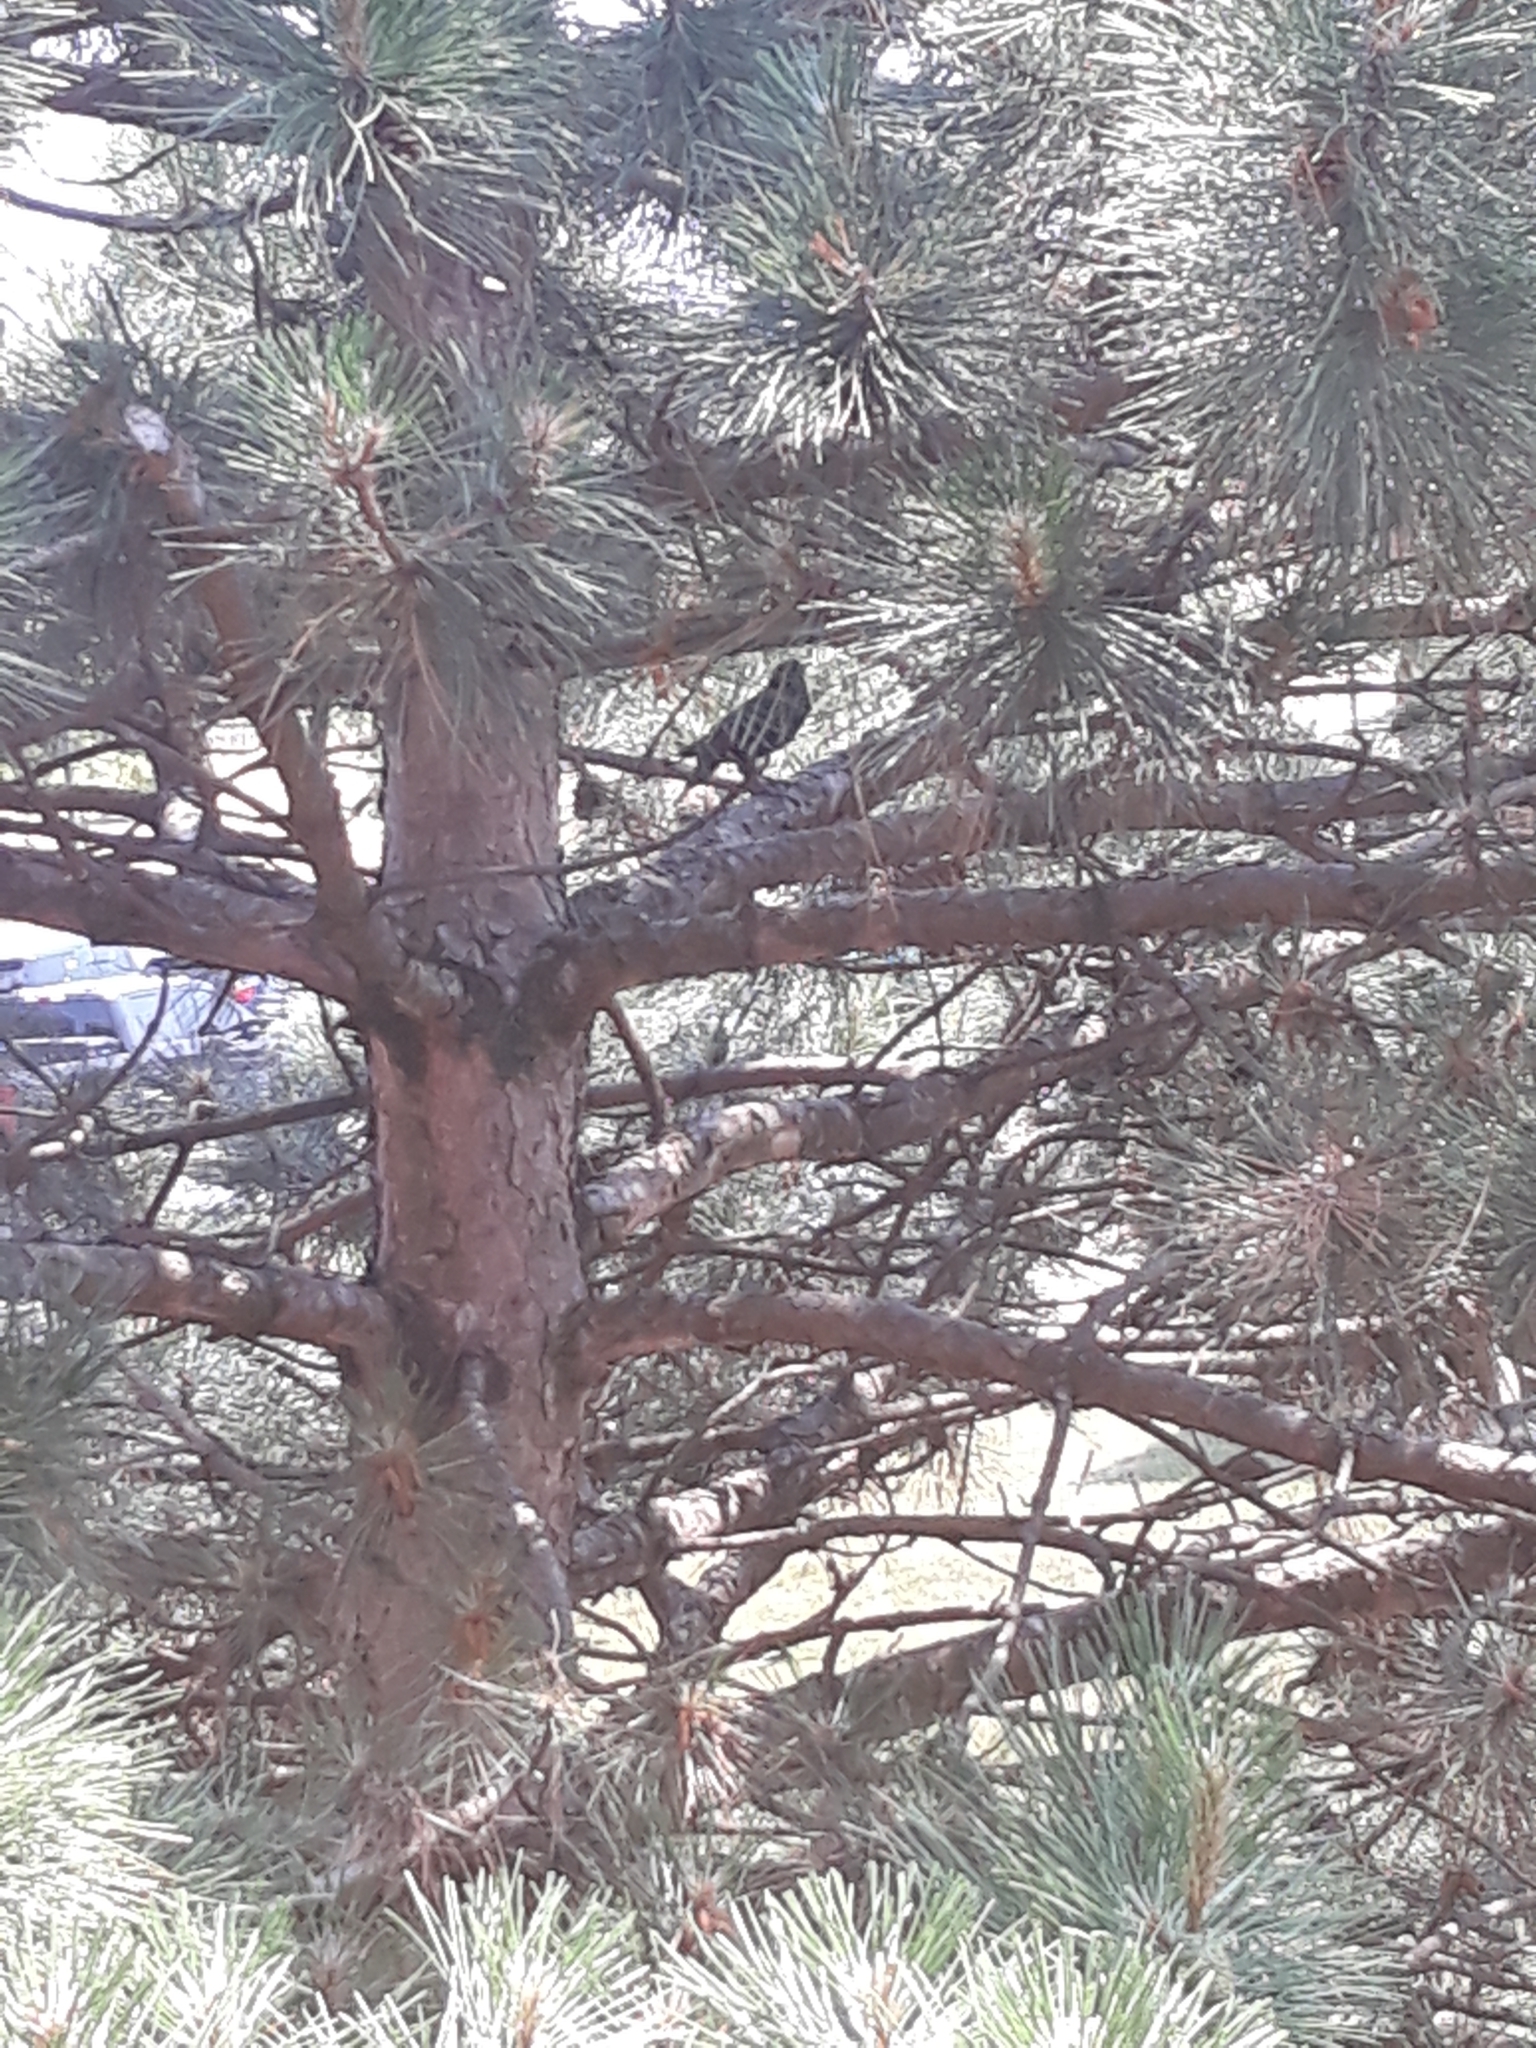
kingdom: Animalia
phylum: Chordata
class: Aves
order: Passeriformes
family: Sturnidae
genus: Sturnus
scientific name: Sturnus vulgaris
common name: Common starling
